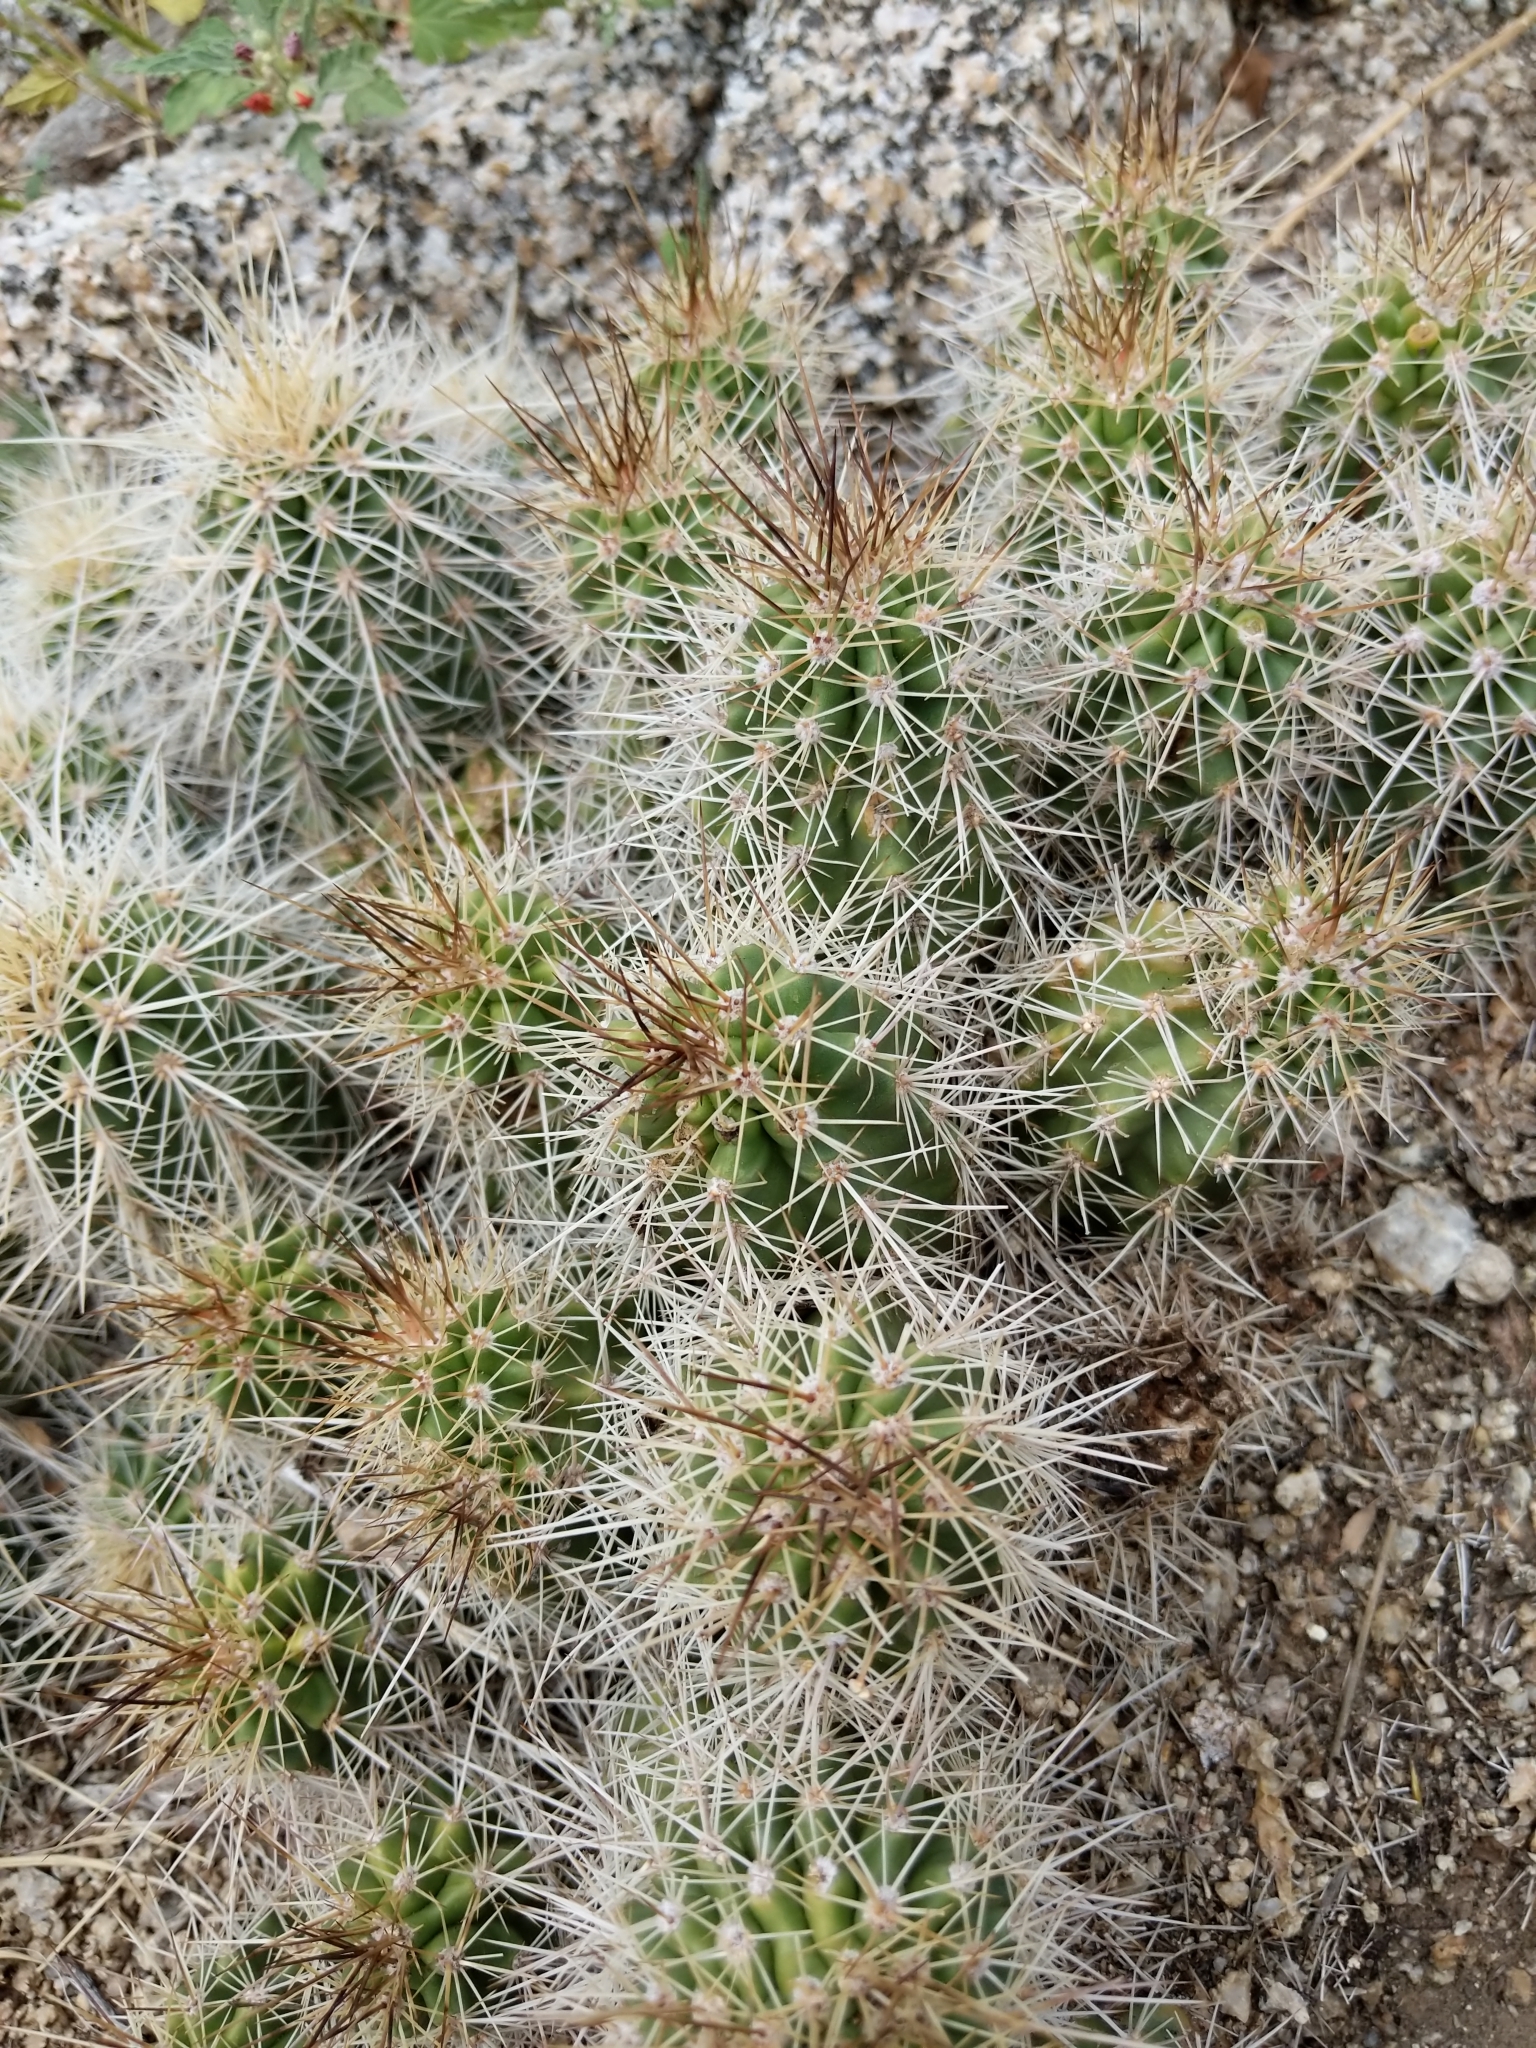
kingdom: Plantae
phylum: Tracheophyta
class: Magnoliopsida
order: Caryophyllales
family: Cactaceae
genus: Echinocereus
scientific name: Echinocereus coccineus
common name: Scarlet hedgehog cactus
